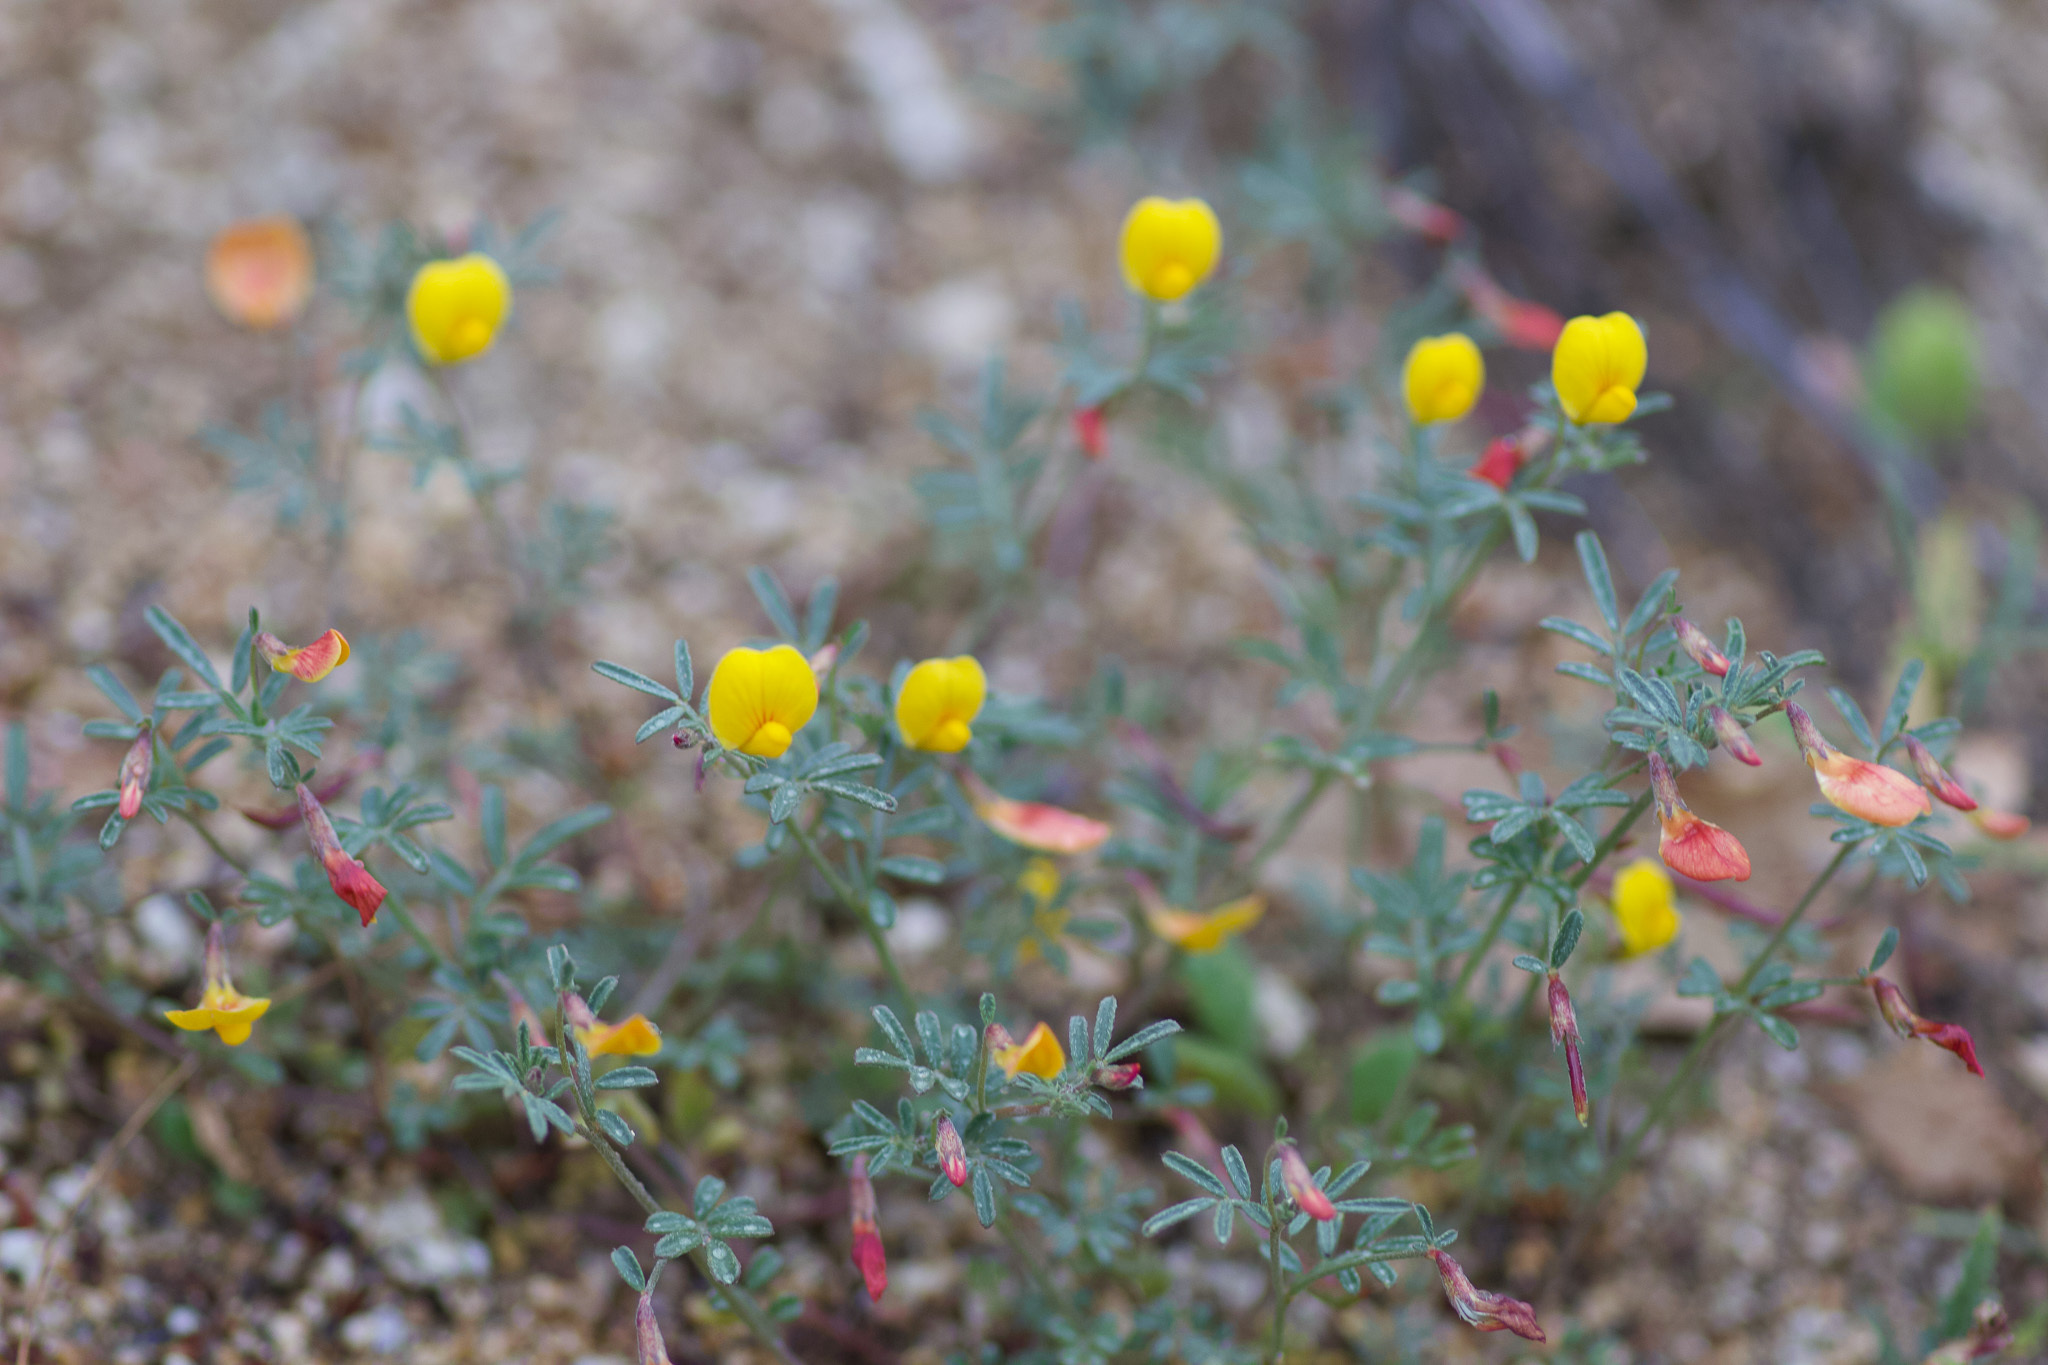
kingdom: Plantae
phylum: Tracheophyta
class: Magnoliopsida
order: Fabales
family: Fabaceae
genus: Acmispon
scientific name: Acmispon strigosus
